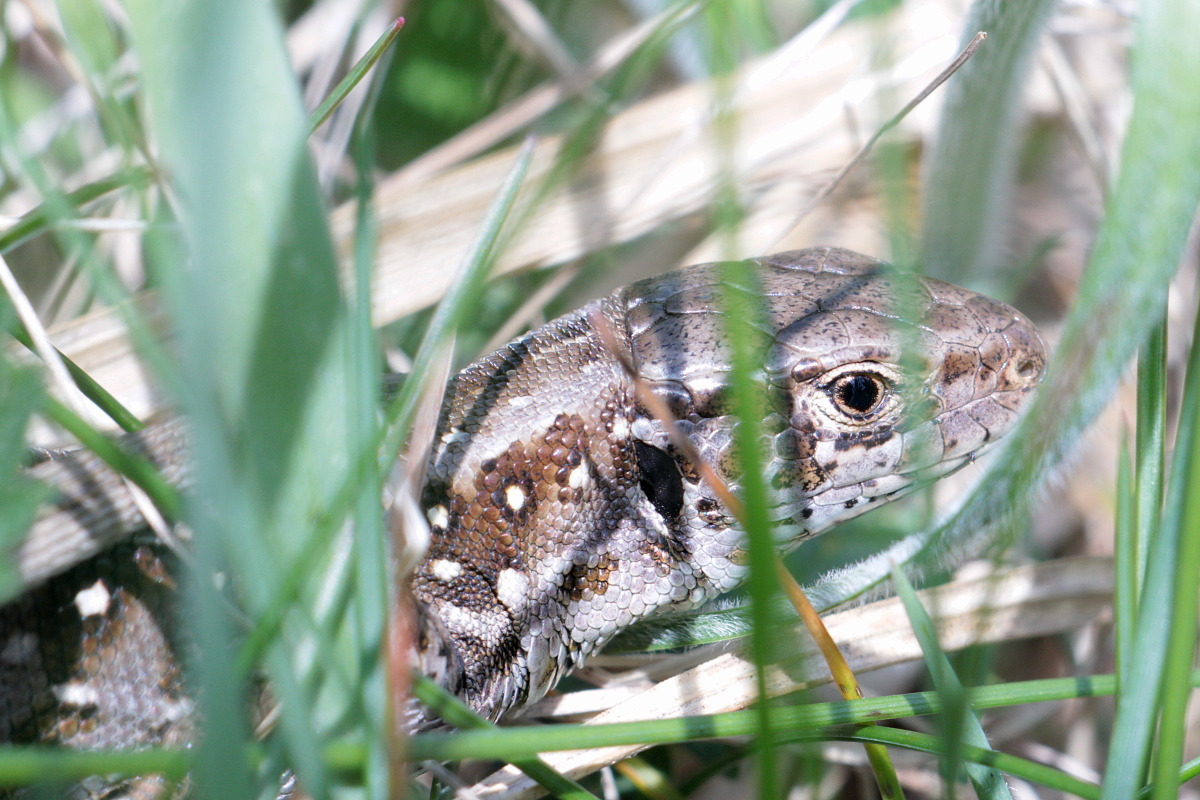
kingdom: Animalia
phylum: Chordata
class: Squamata
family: Lacertidae
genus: Lacerta
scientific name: Lacerta agilis
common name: Sand lizard
